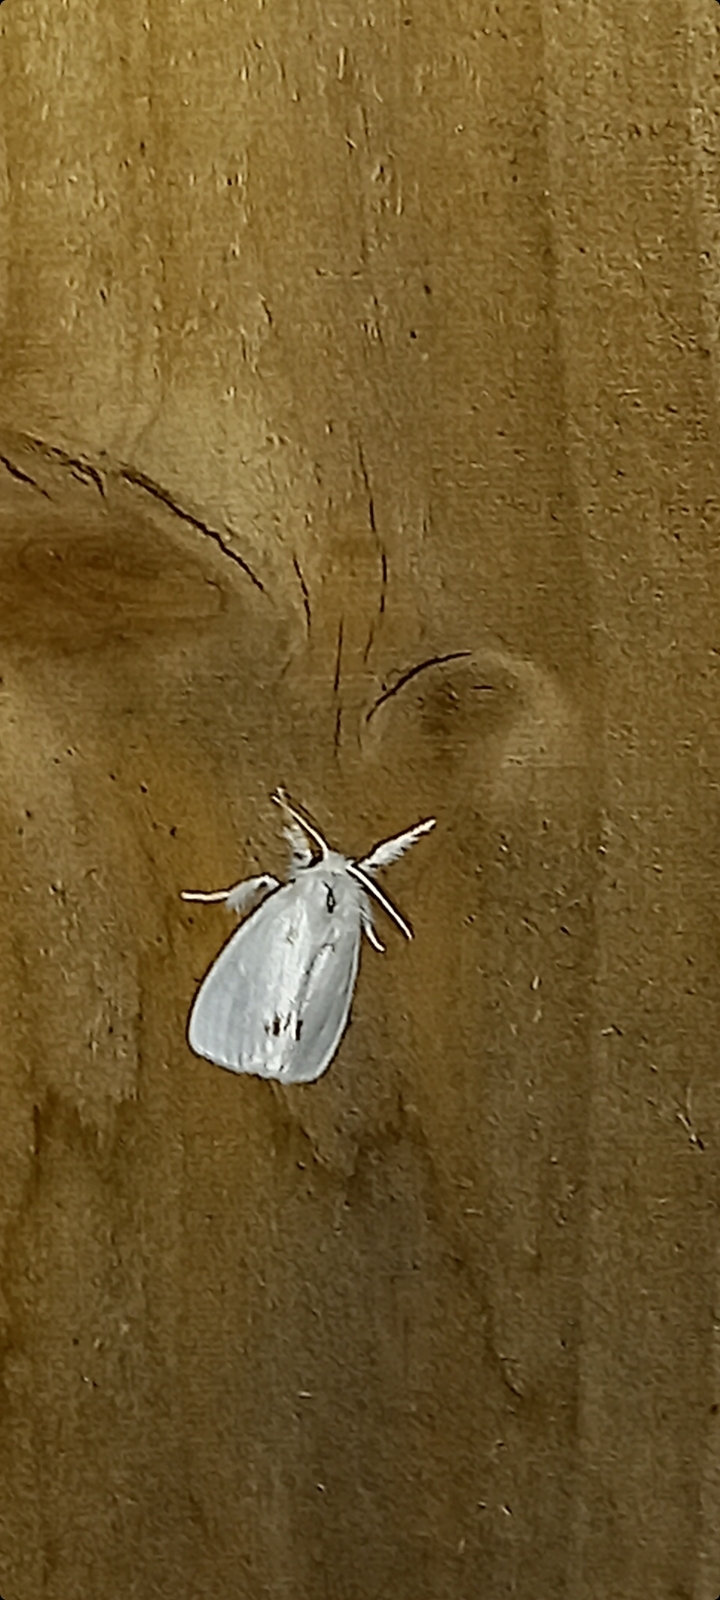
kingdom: Animalia
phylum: Arthropoda
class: Insecta
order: Lepidoptera
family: Erebidae
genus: Sphrageidus
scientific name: Sphrageidus similis
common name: Yellow-tail
